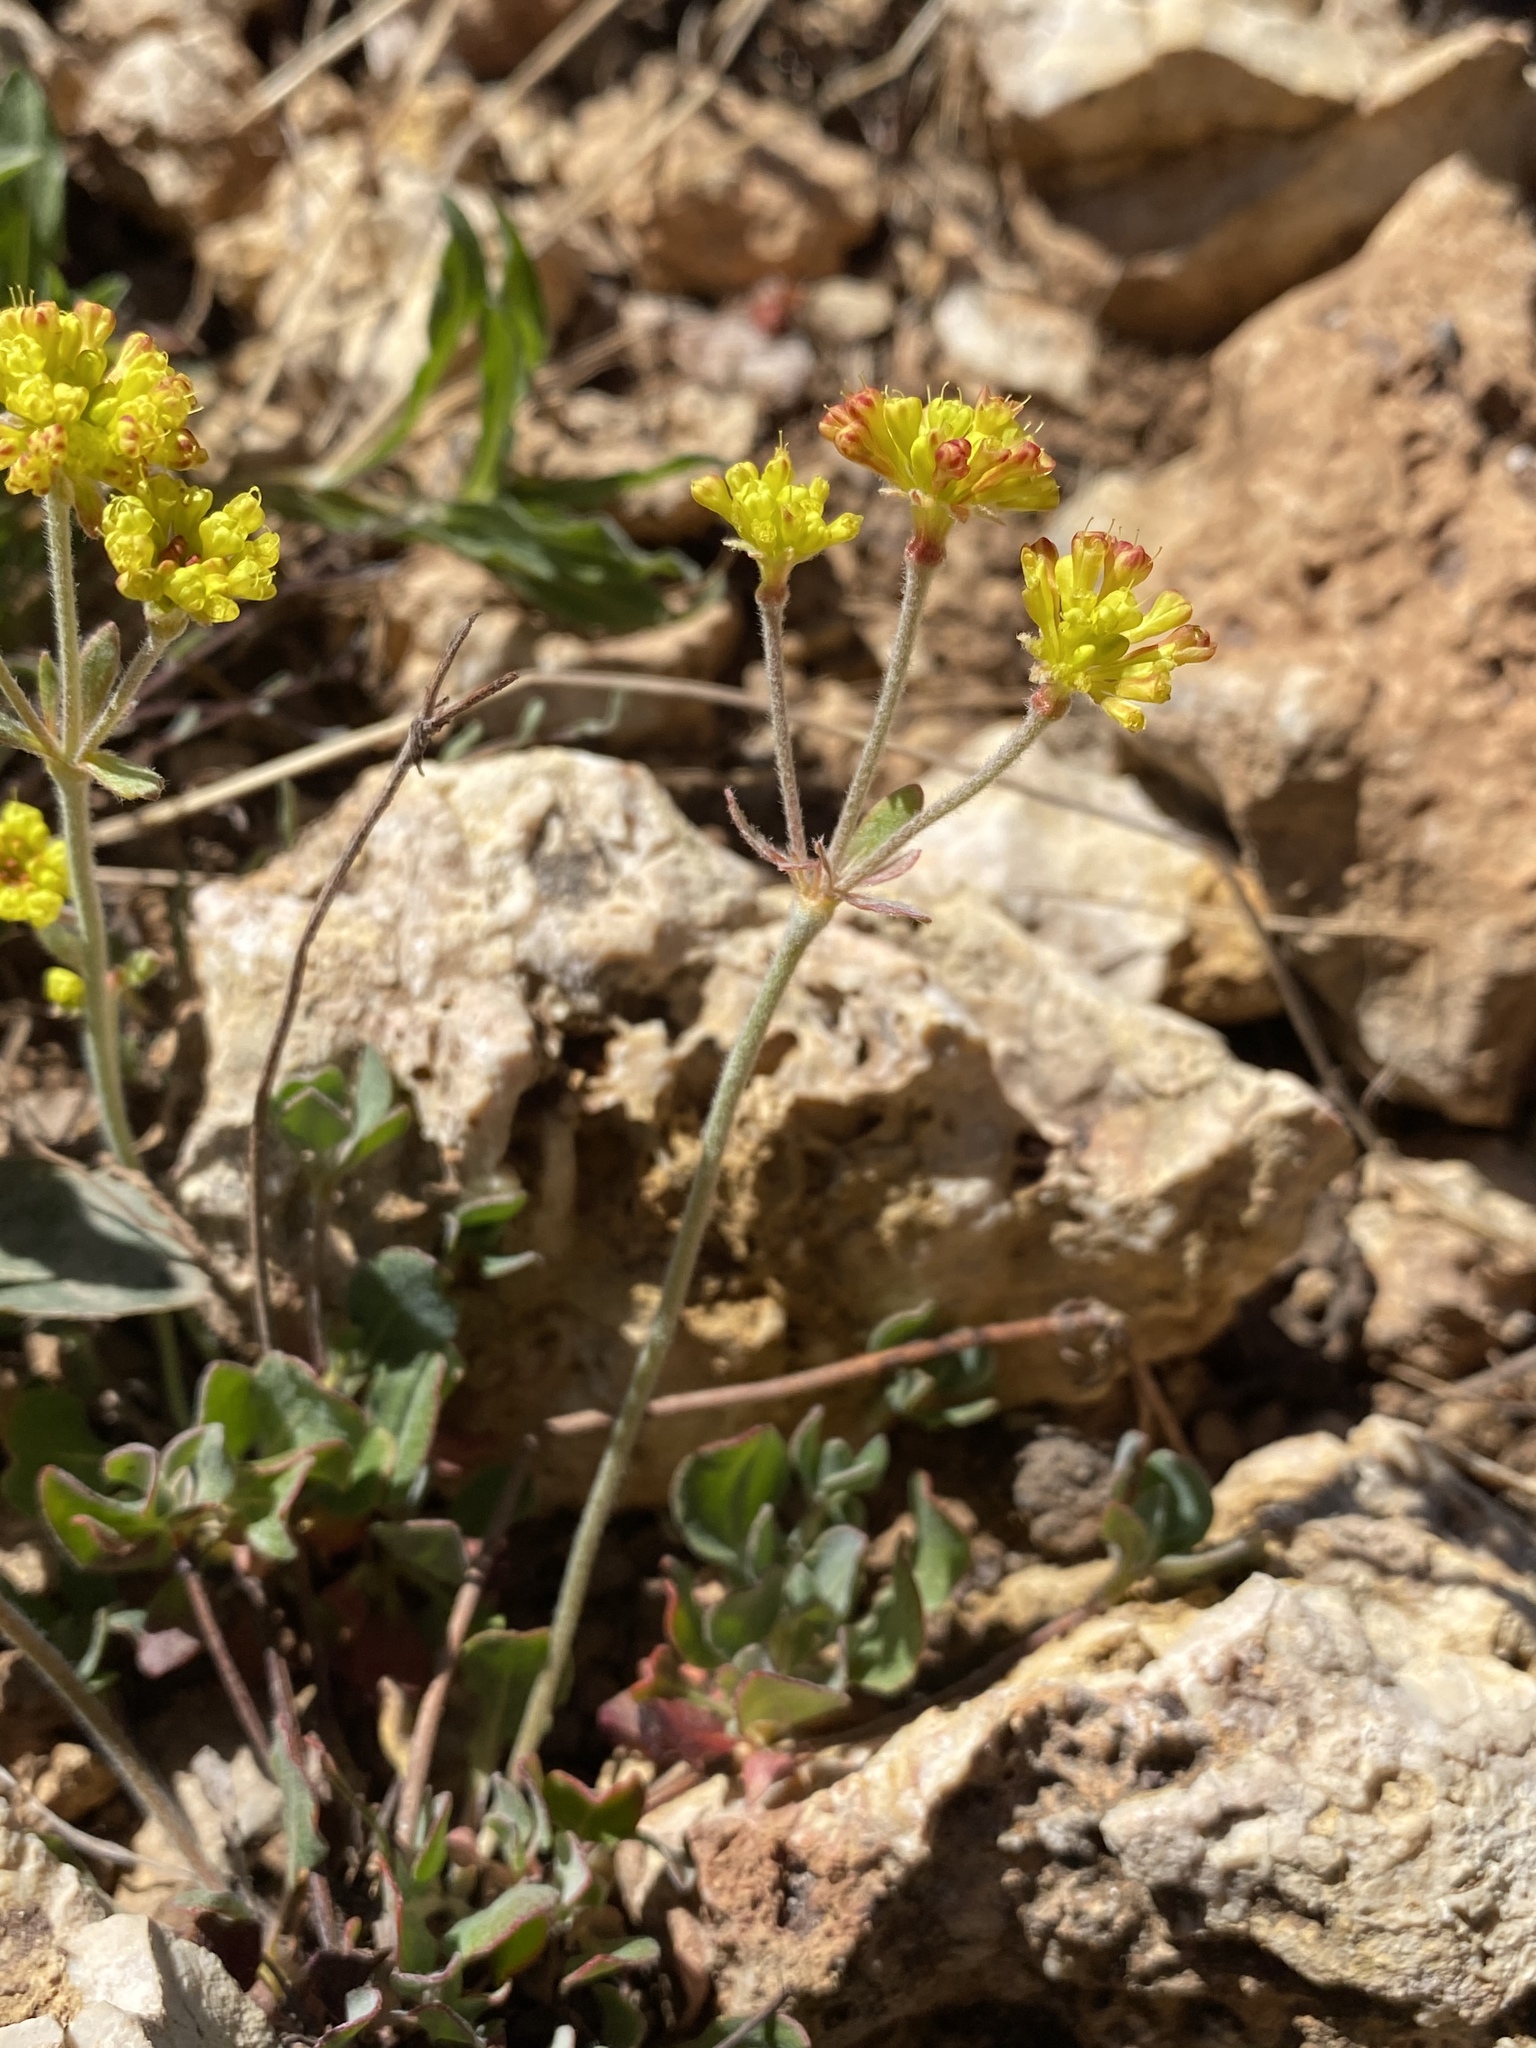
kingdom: Plantae
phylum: Tracheophyta
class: Magnoliopsida
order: Caryophyllales
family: Polygonaceae
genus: Eriogonum
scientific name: Eriogonum umbellatum
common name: Sulfur-buckwheat
